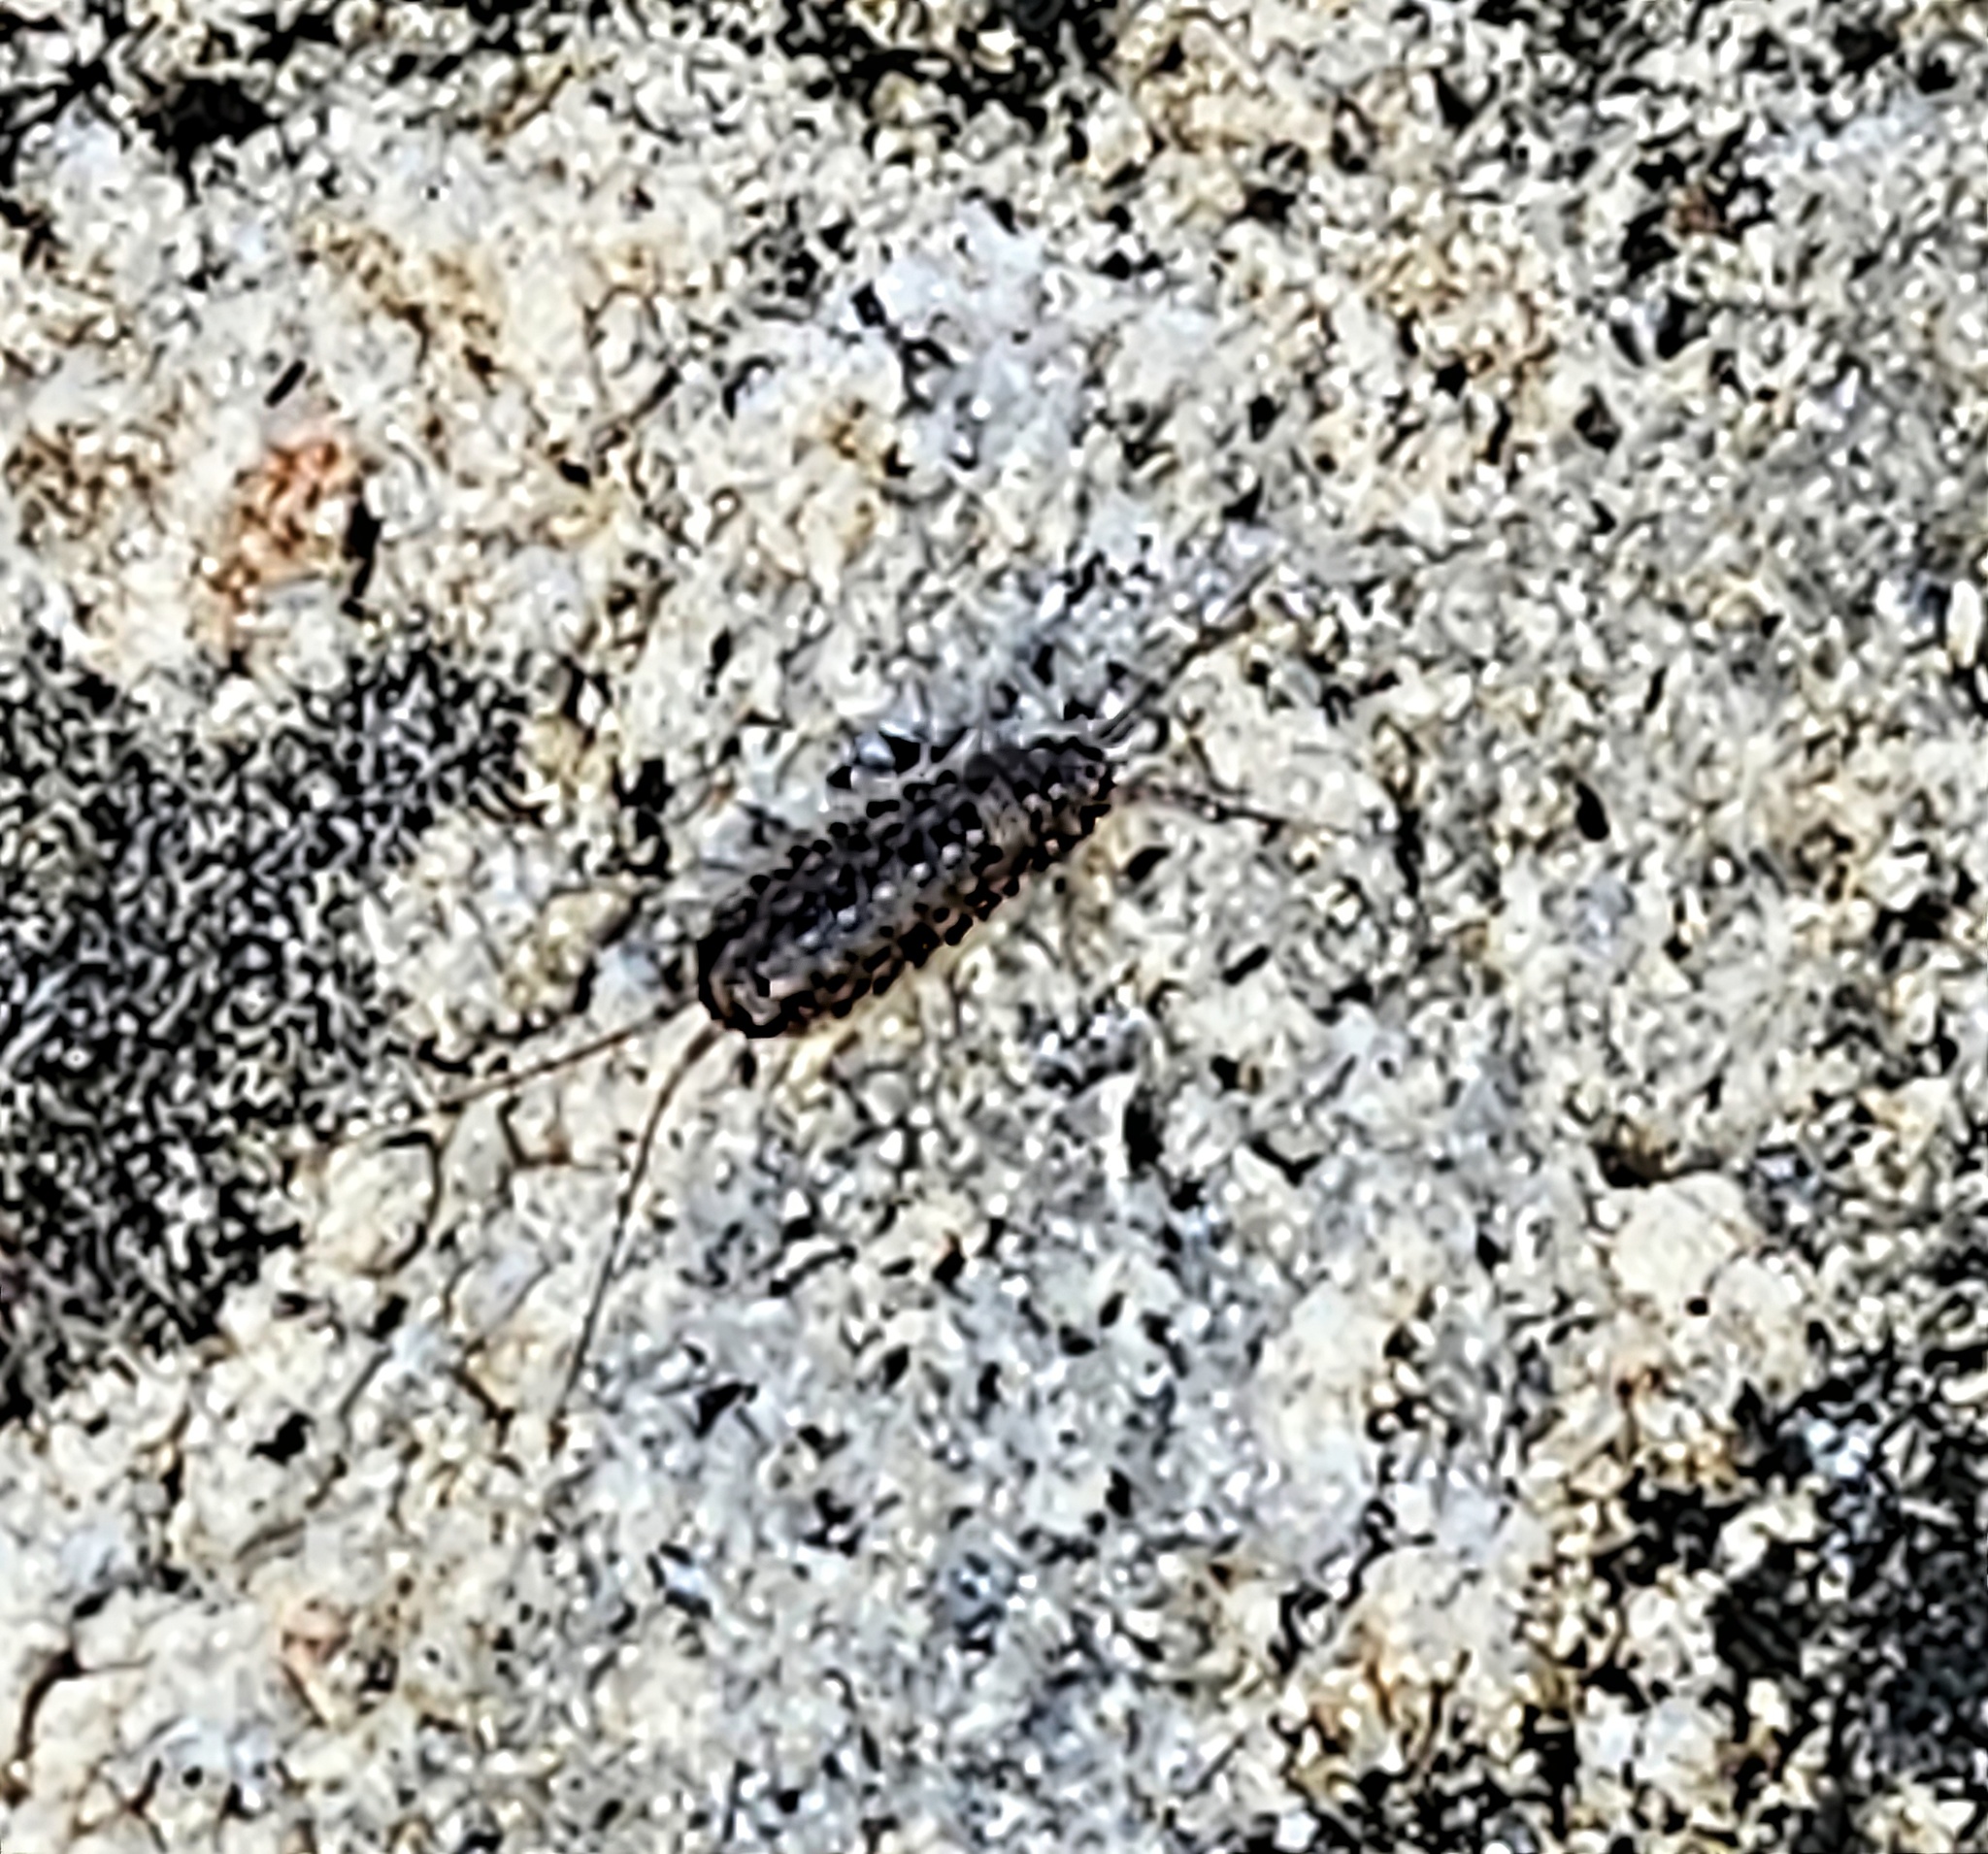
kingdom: Animalia
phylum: Arthropoda
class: Malacostraca
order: Isopoda
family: Ligiidae
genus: Ligia
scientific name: Ligia exotica
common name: Wharf roach
